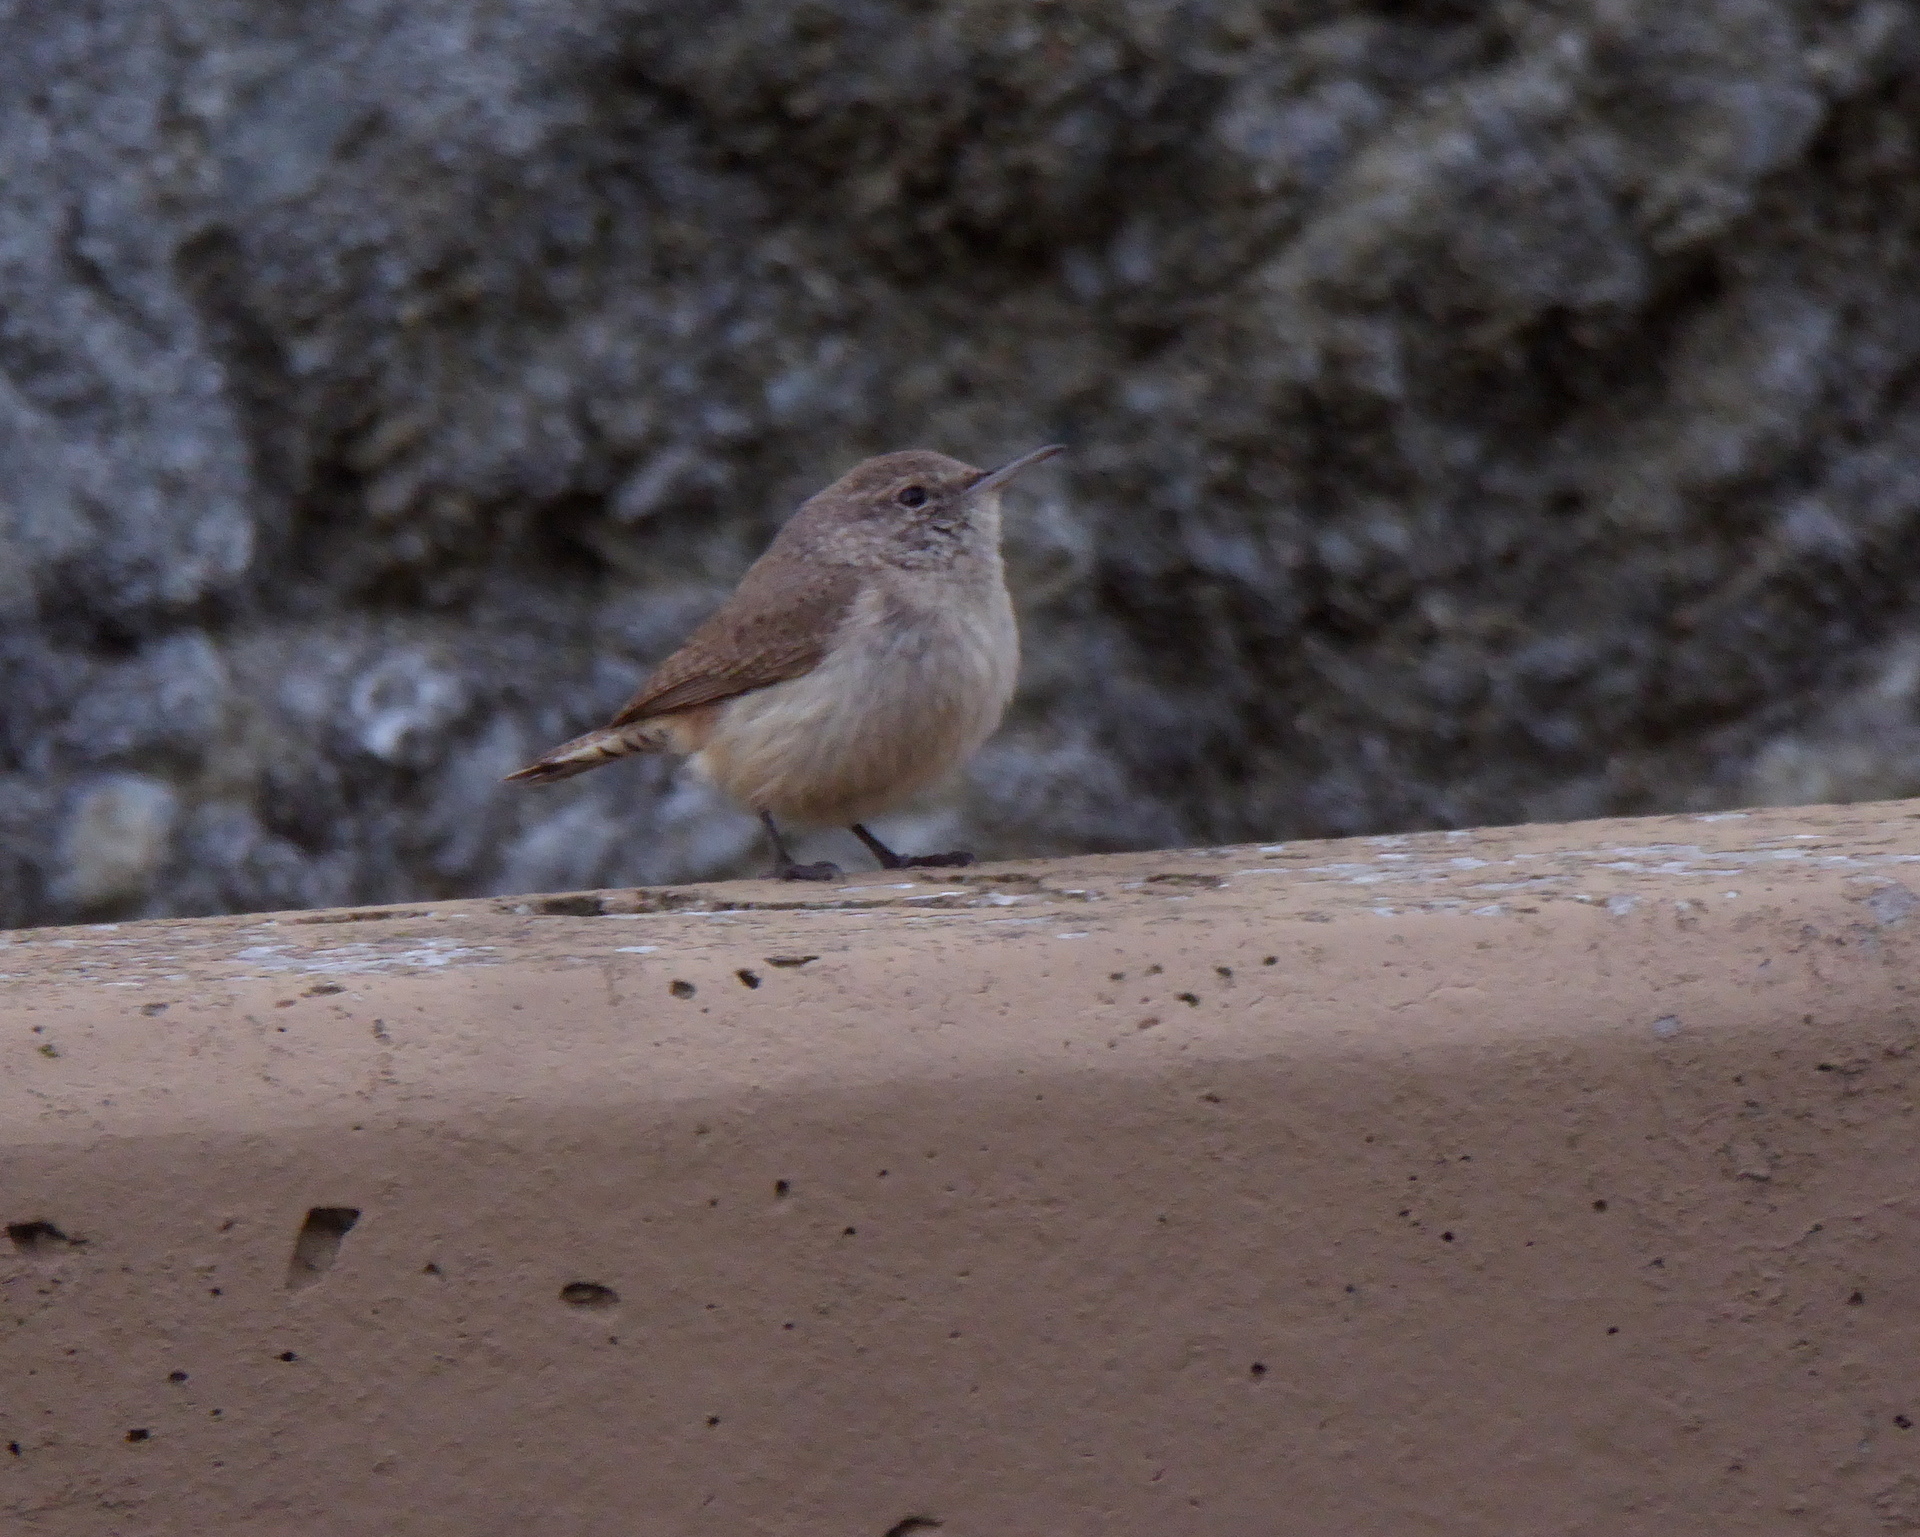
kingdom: Animalia
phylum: Chordata
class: Aves
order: Passeriformes
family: Troglodytidae
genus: Salpinctes
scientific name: Salpinctes obsoletus
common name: Rock wren
